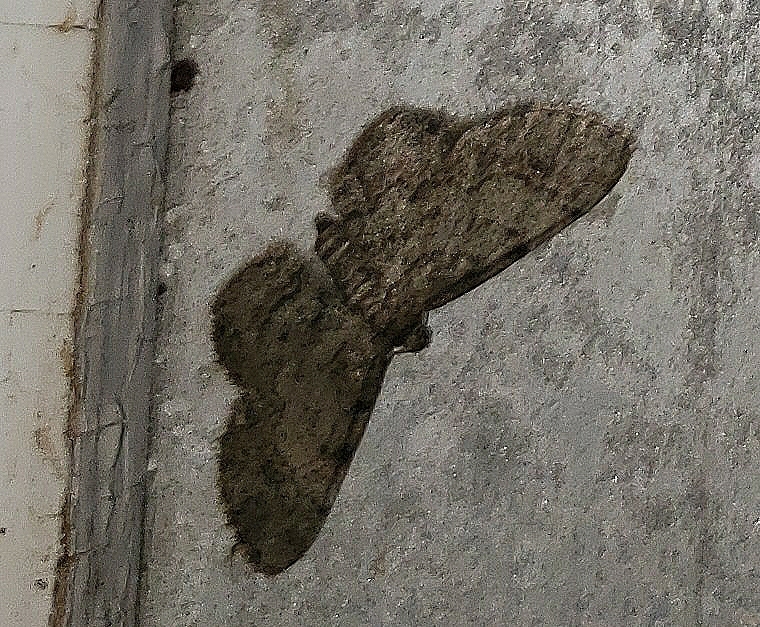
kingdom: Animalia
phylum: Arthropoda
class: Insecta
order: Lepidoptera
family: Geometridae
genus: Glenoides
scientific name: Glenoides texanaria
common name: Texas gray
